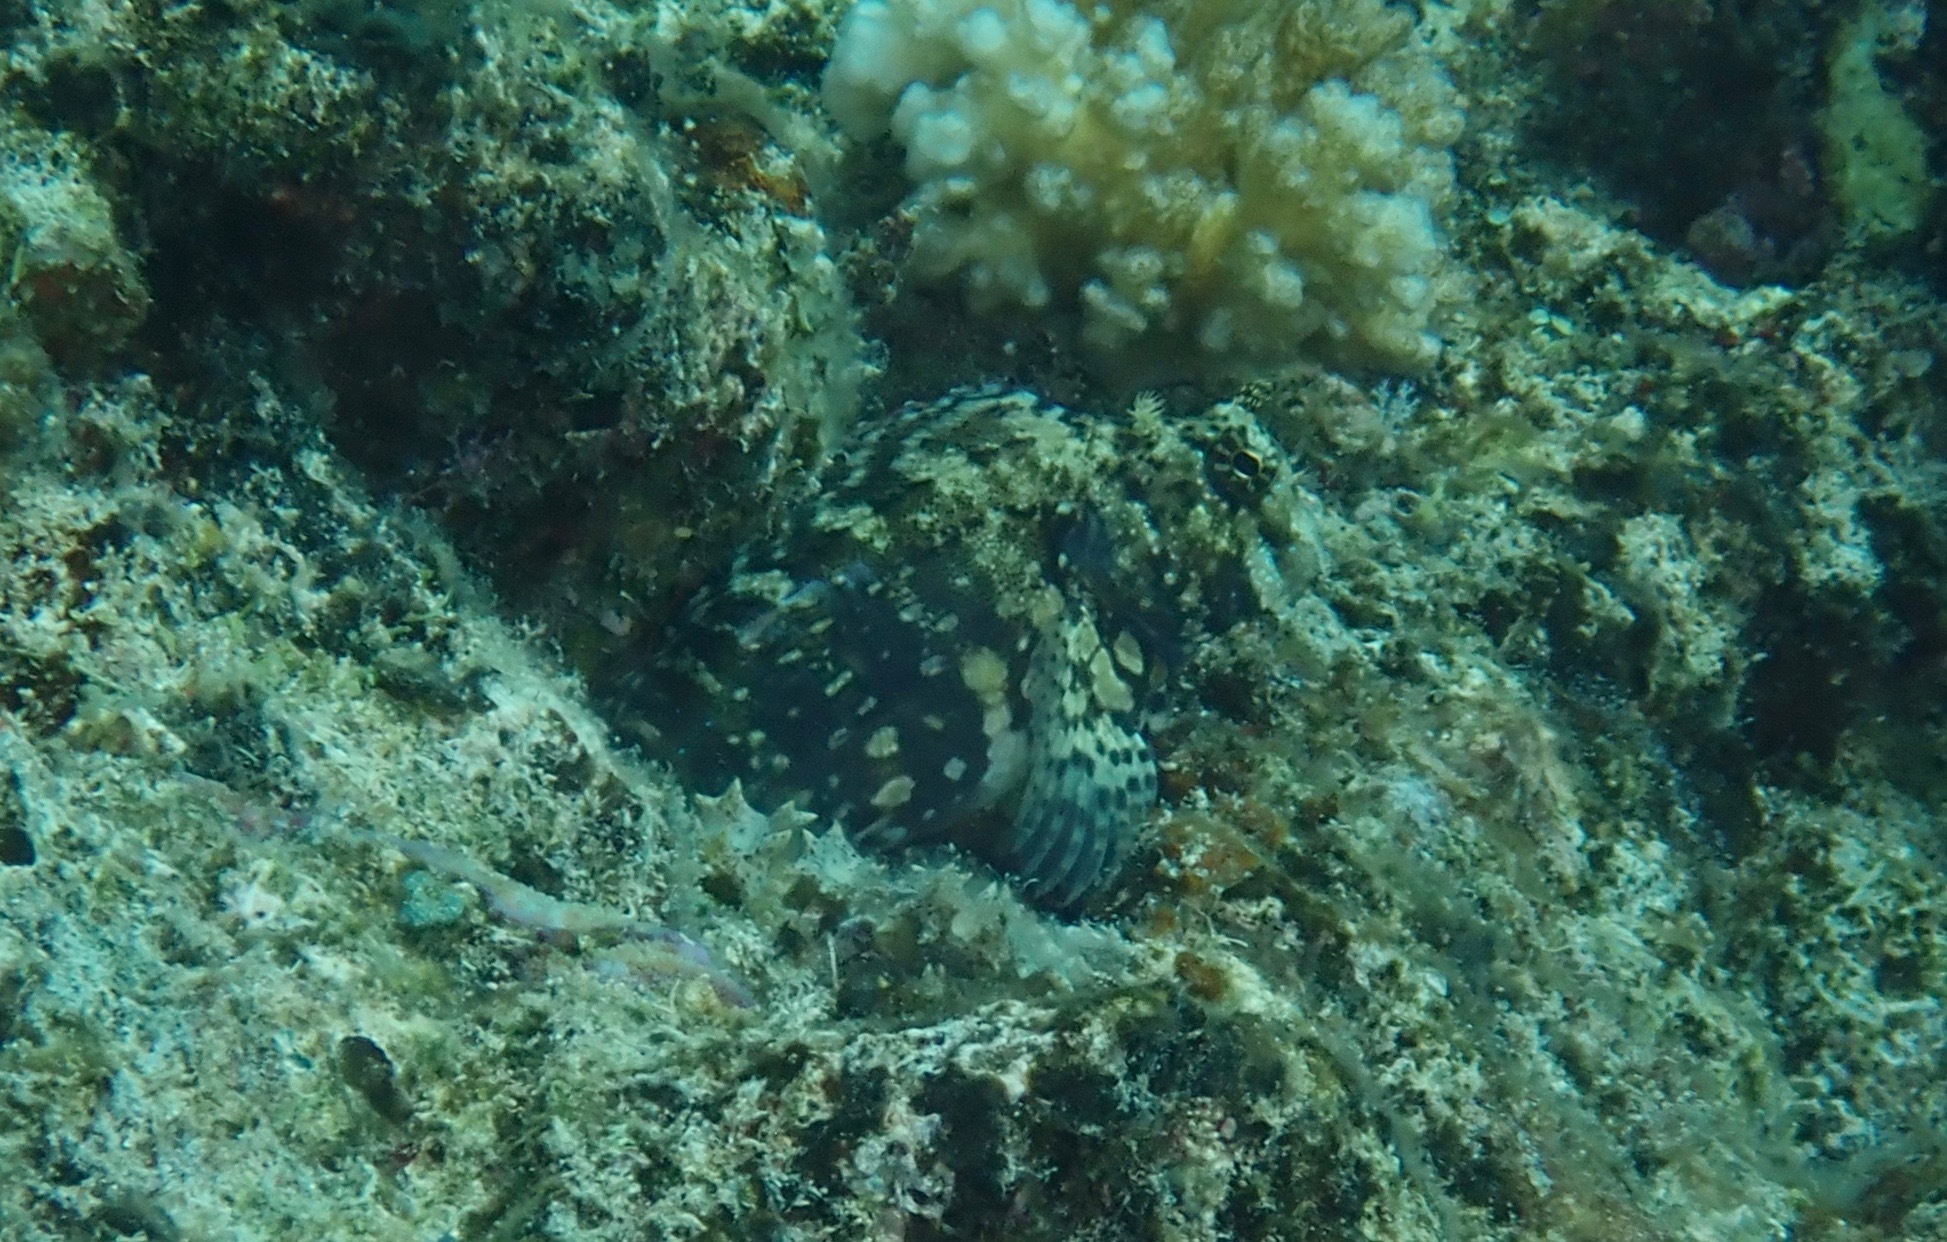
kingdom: Animalia
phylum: Chordata
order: Perciformes
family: Blenniidae
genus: Salarias
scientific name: Salarias fasciatus
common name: Jewelled blenny
